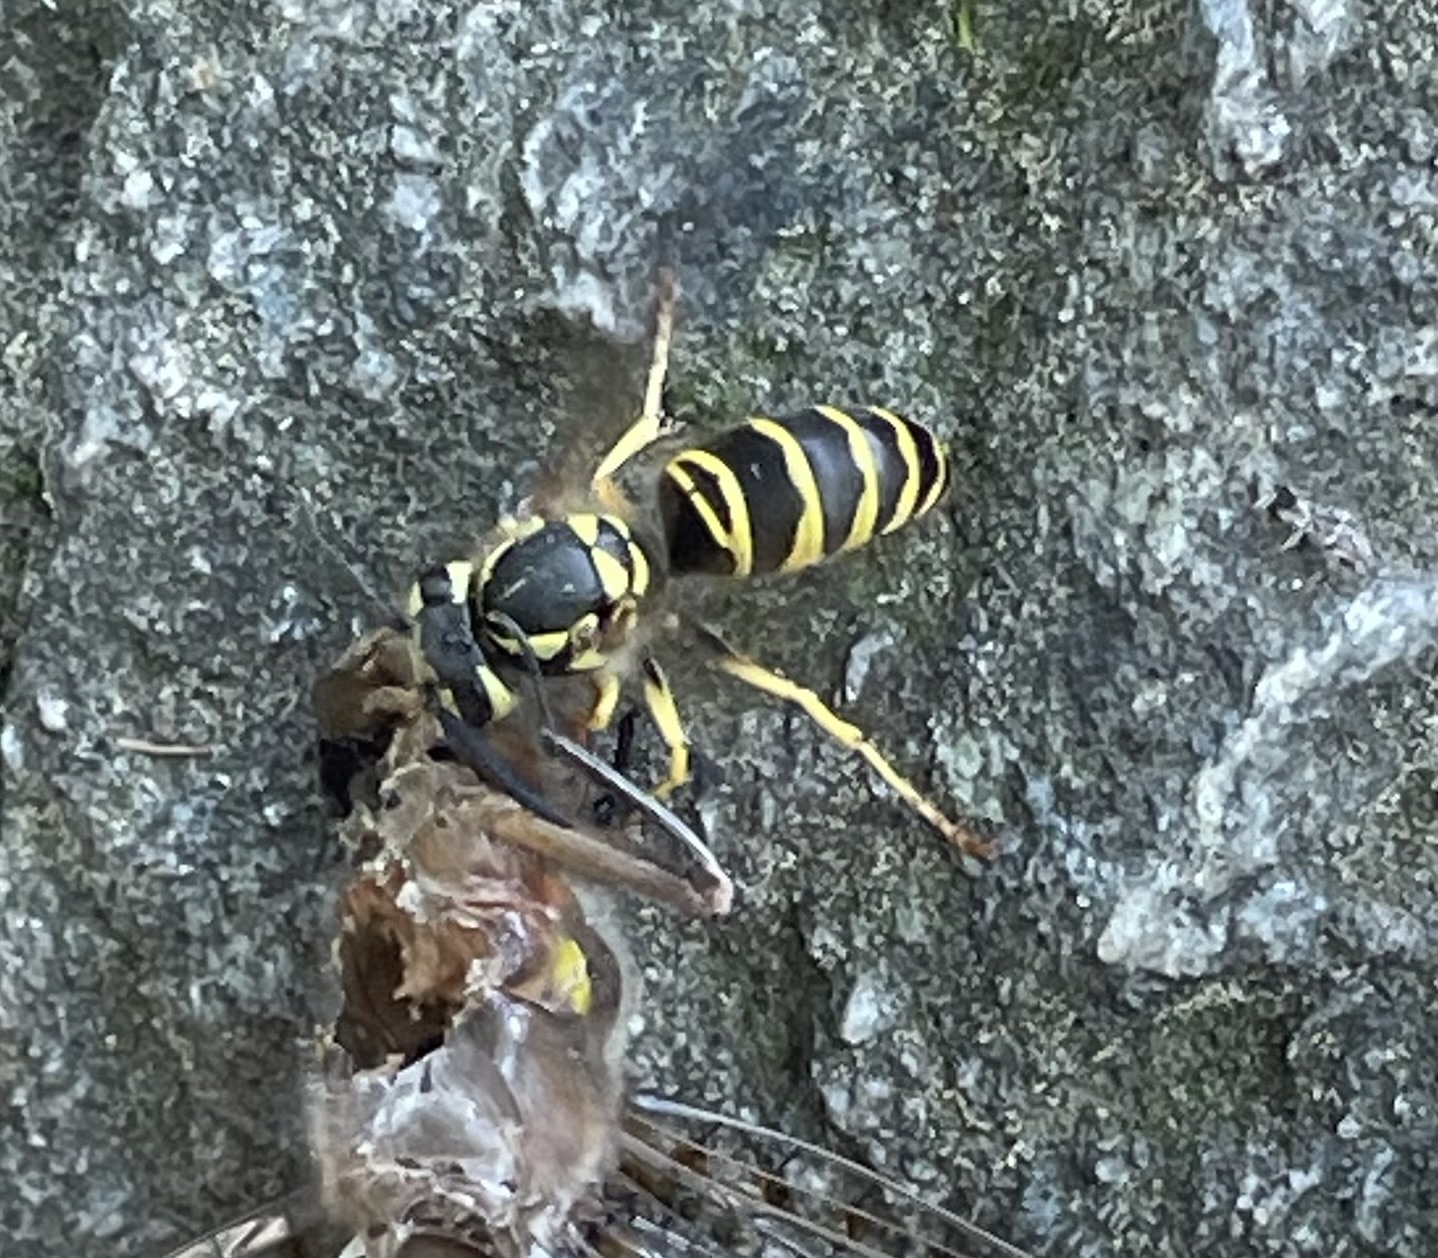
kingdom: Animalia
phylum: Arthropoda
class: Insecta
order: Hymenoptera
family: Vespidae
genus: Vespula
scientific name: Vespula maculifrons
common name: Eastern yellowjacket
